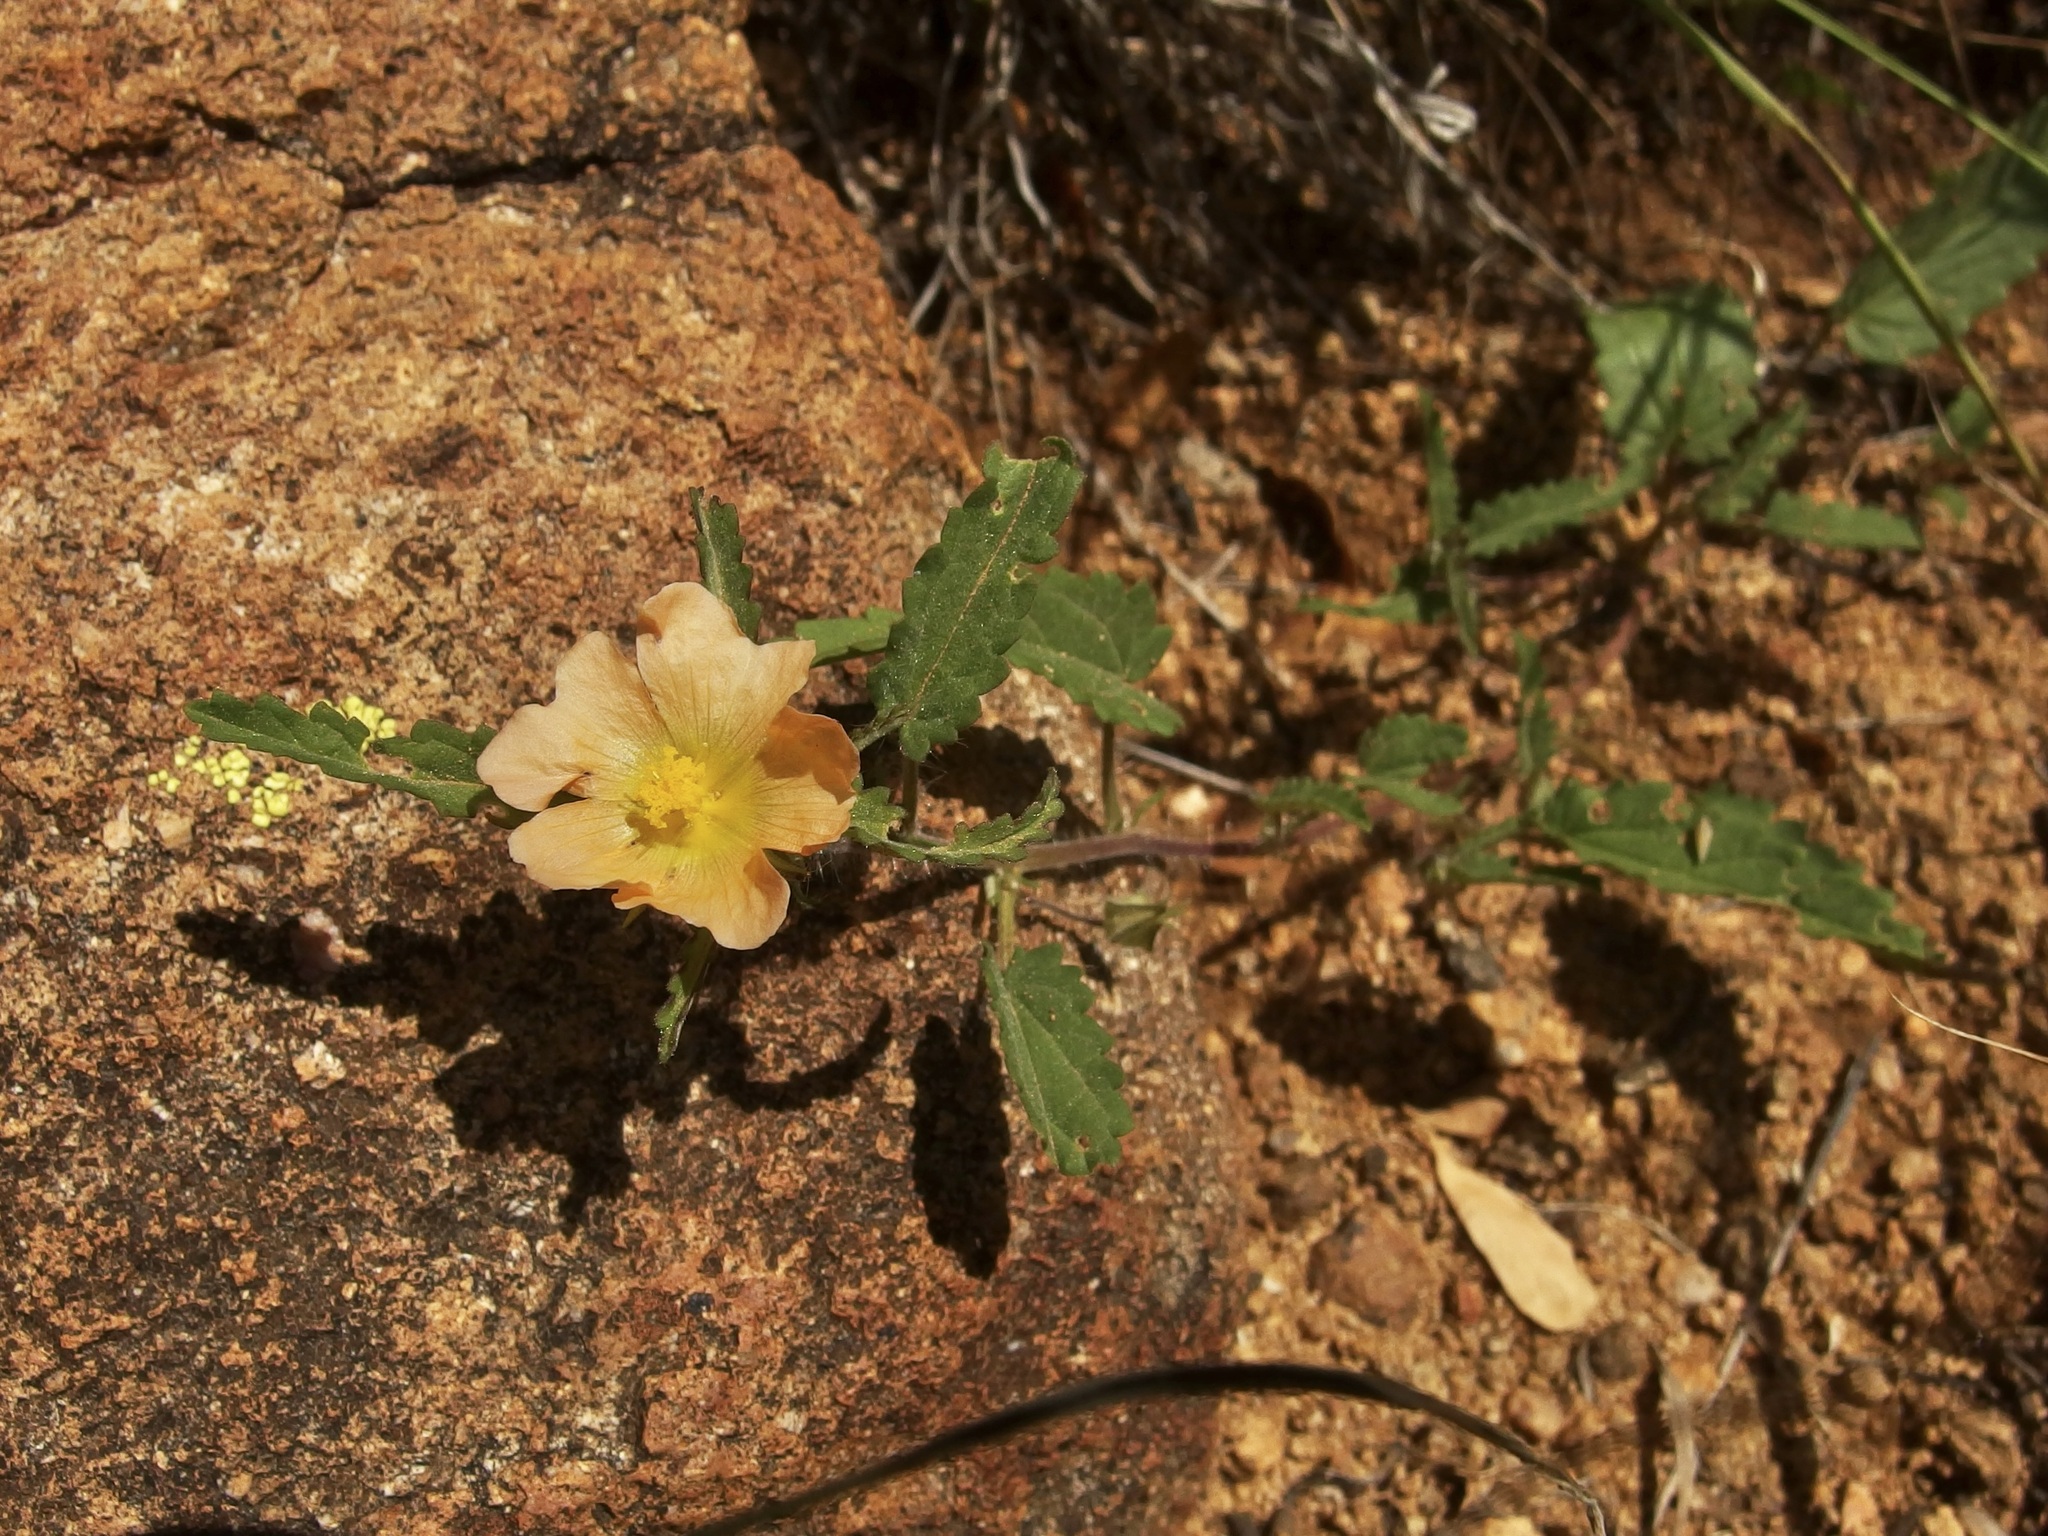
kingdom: Plantae
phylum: Tracheophyta
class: Magnoliopsida
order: Malvales
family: Malvaceae
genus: Sida
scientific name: Sida abutilifolia
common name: Spreading fanpetals
